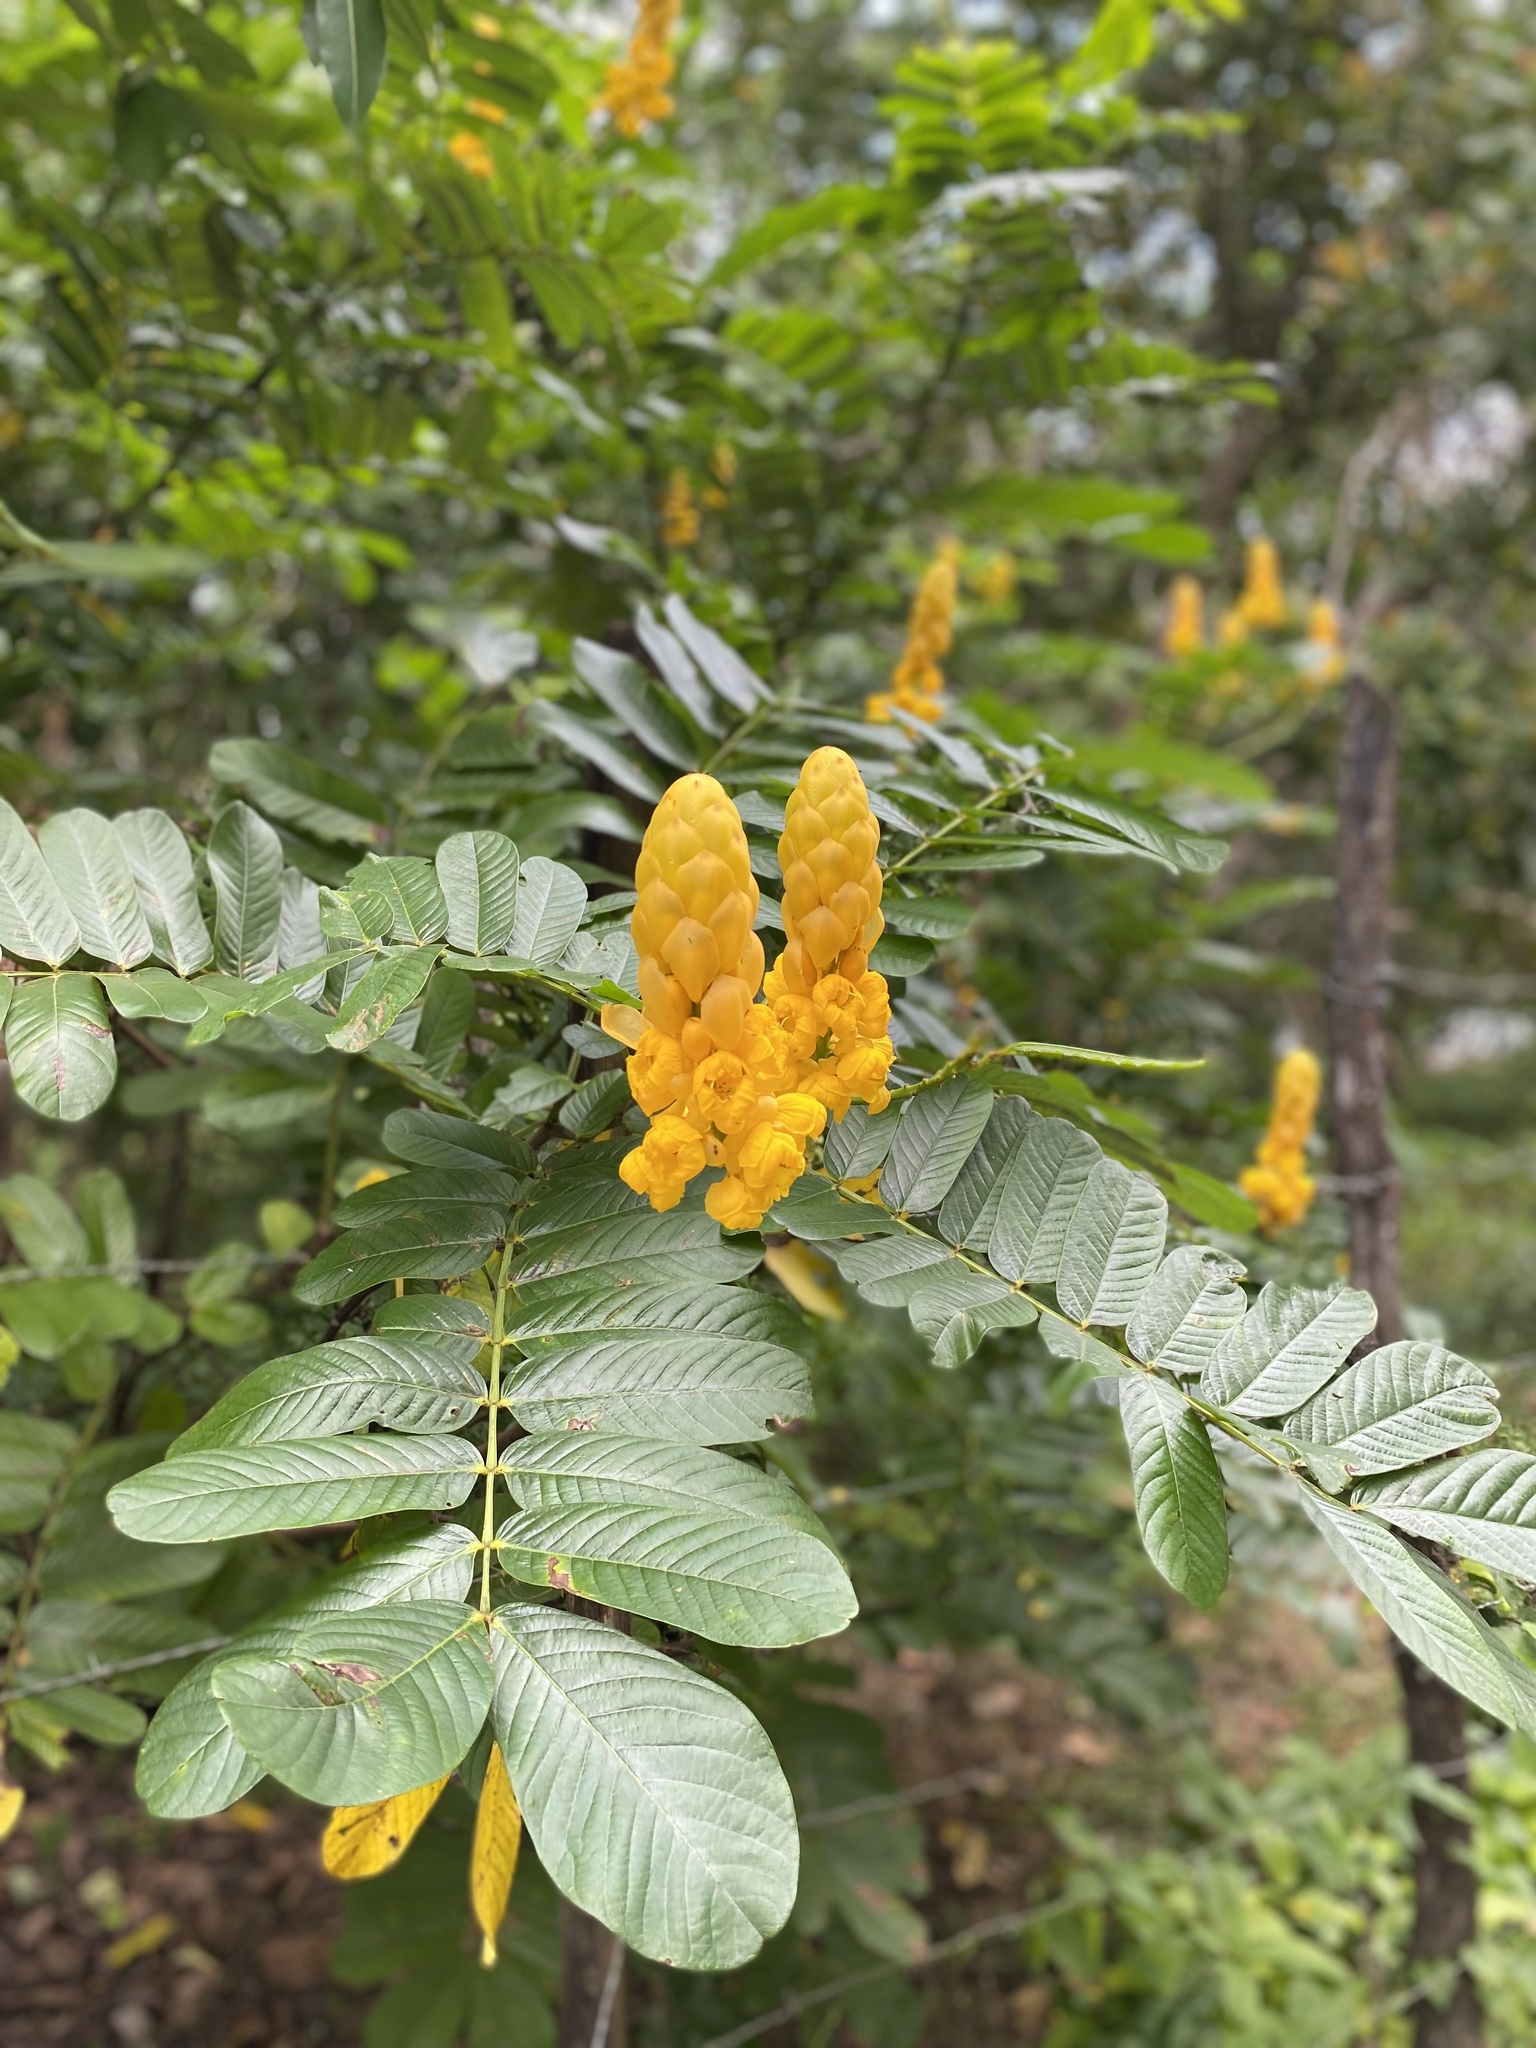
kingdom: Plantae
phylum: Tracheophyta
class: Magnoliopsida
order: Fabales
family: Fabaceae
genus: Senna
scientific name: Senna alata
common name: Emperor's candlesticks
